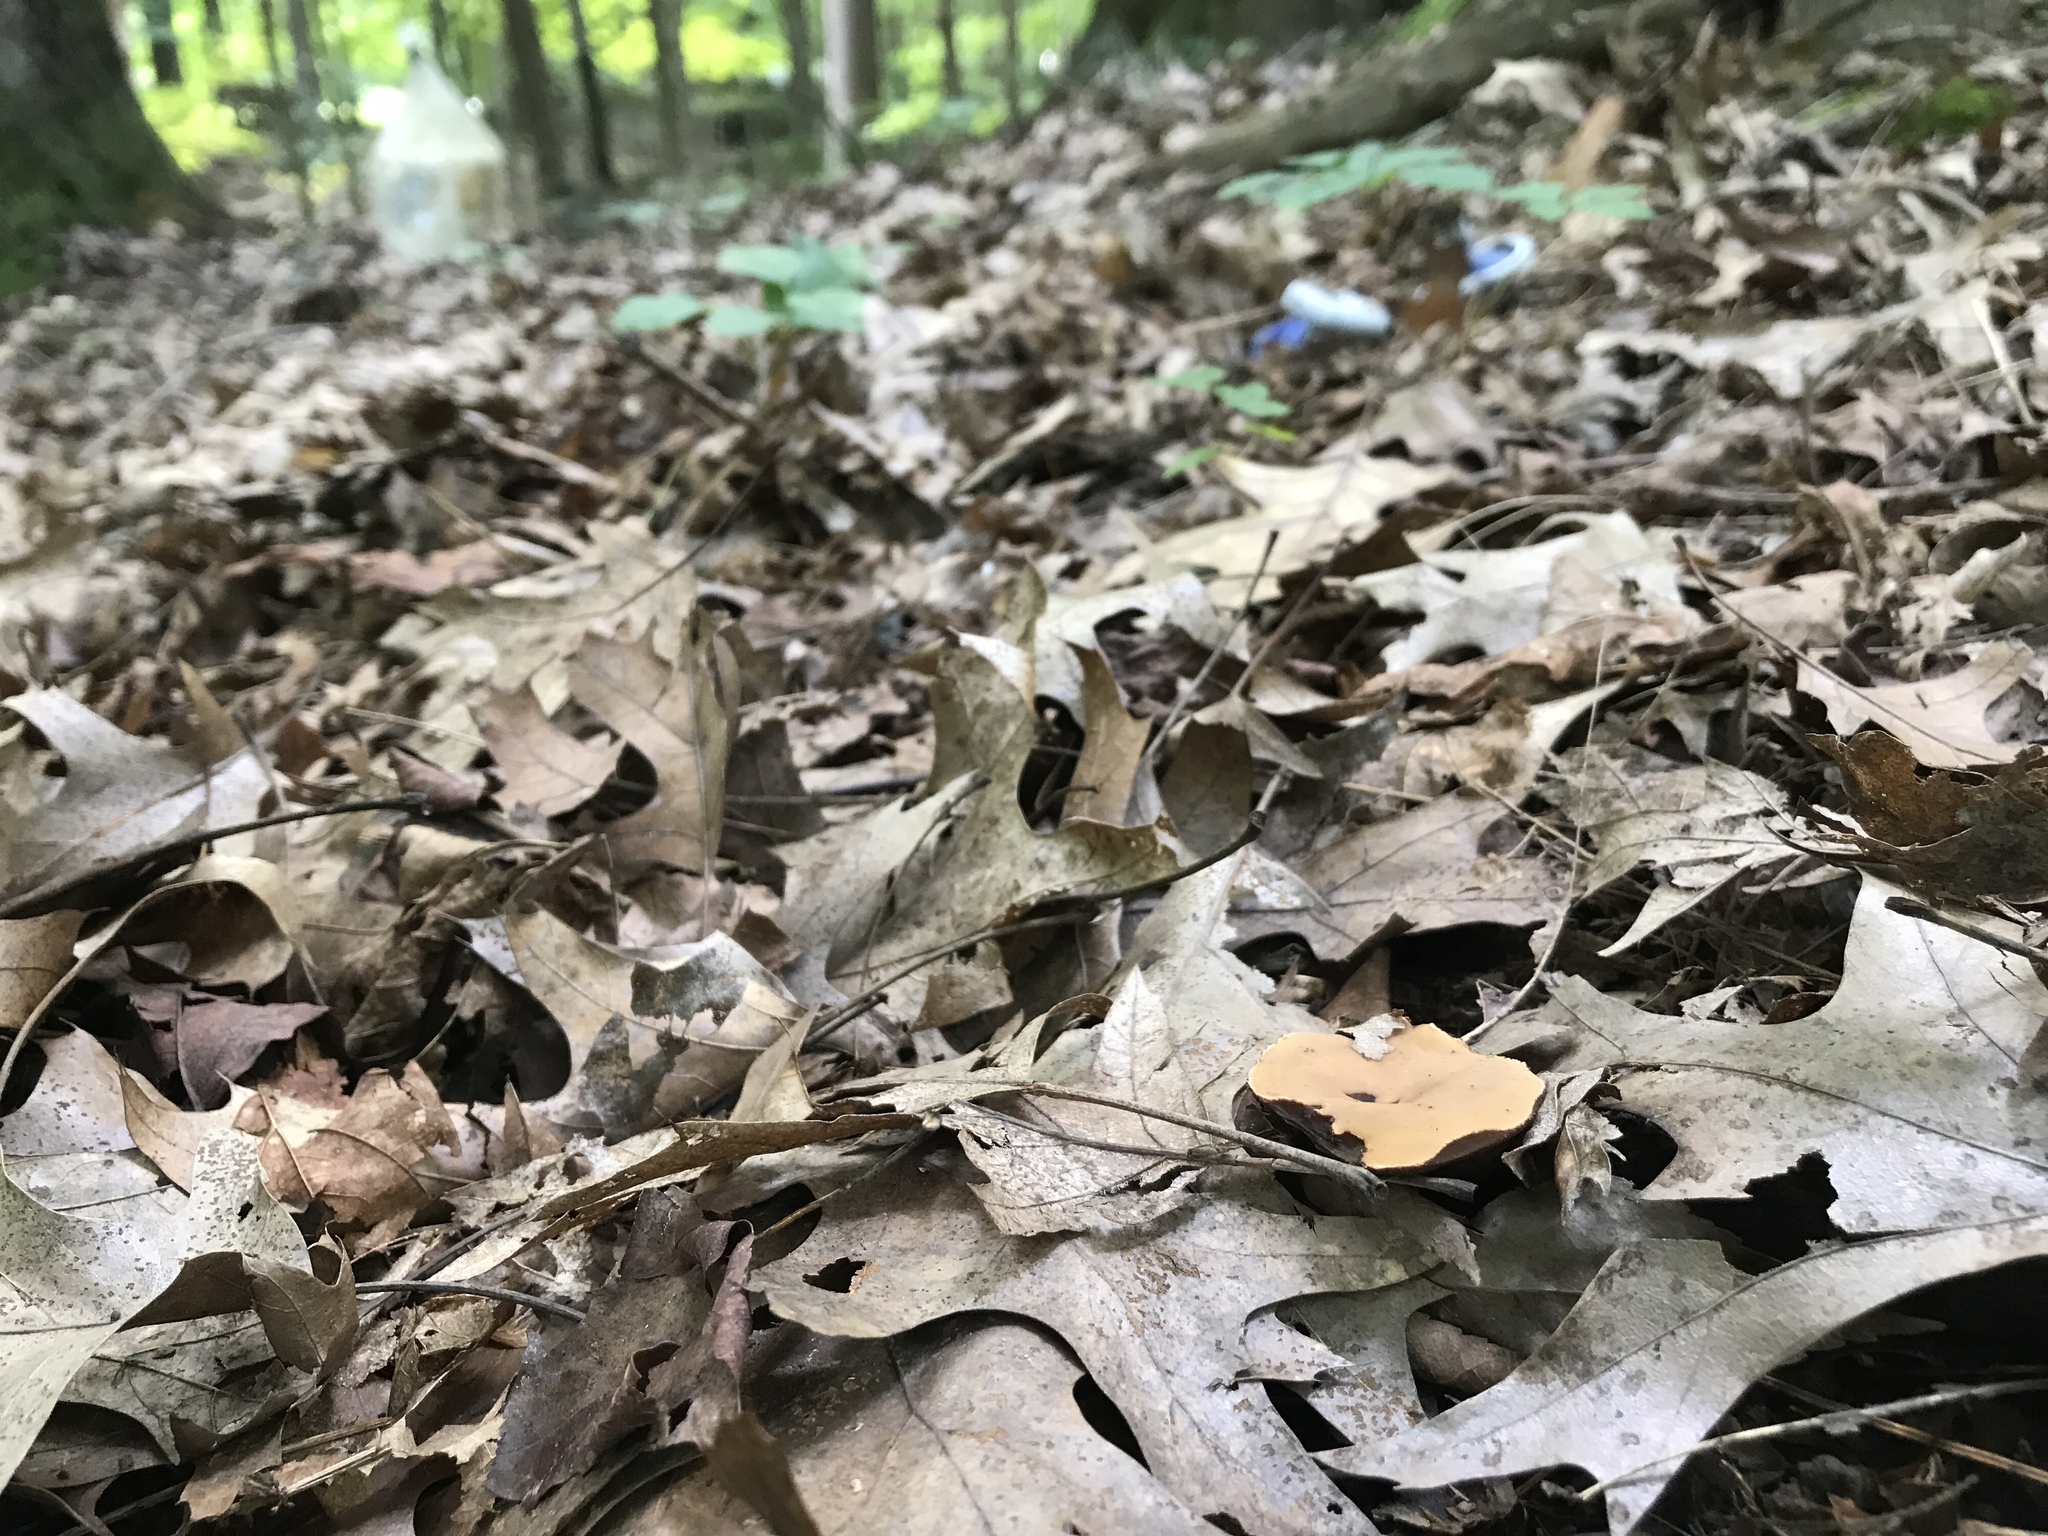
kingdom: Fungi
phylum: Ascomycota
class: Pezizomycetes
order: Pezizales
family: Chorioactidaceae
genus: Wolfina
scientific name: Wolfina aurantiopsis
